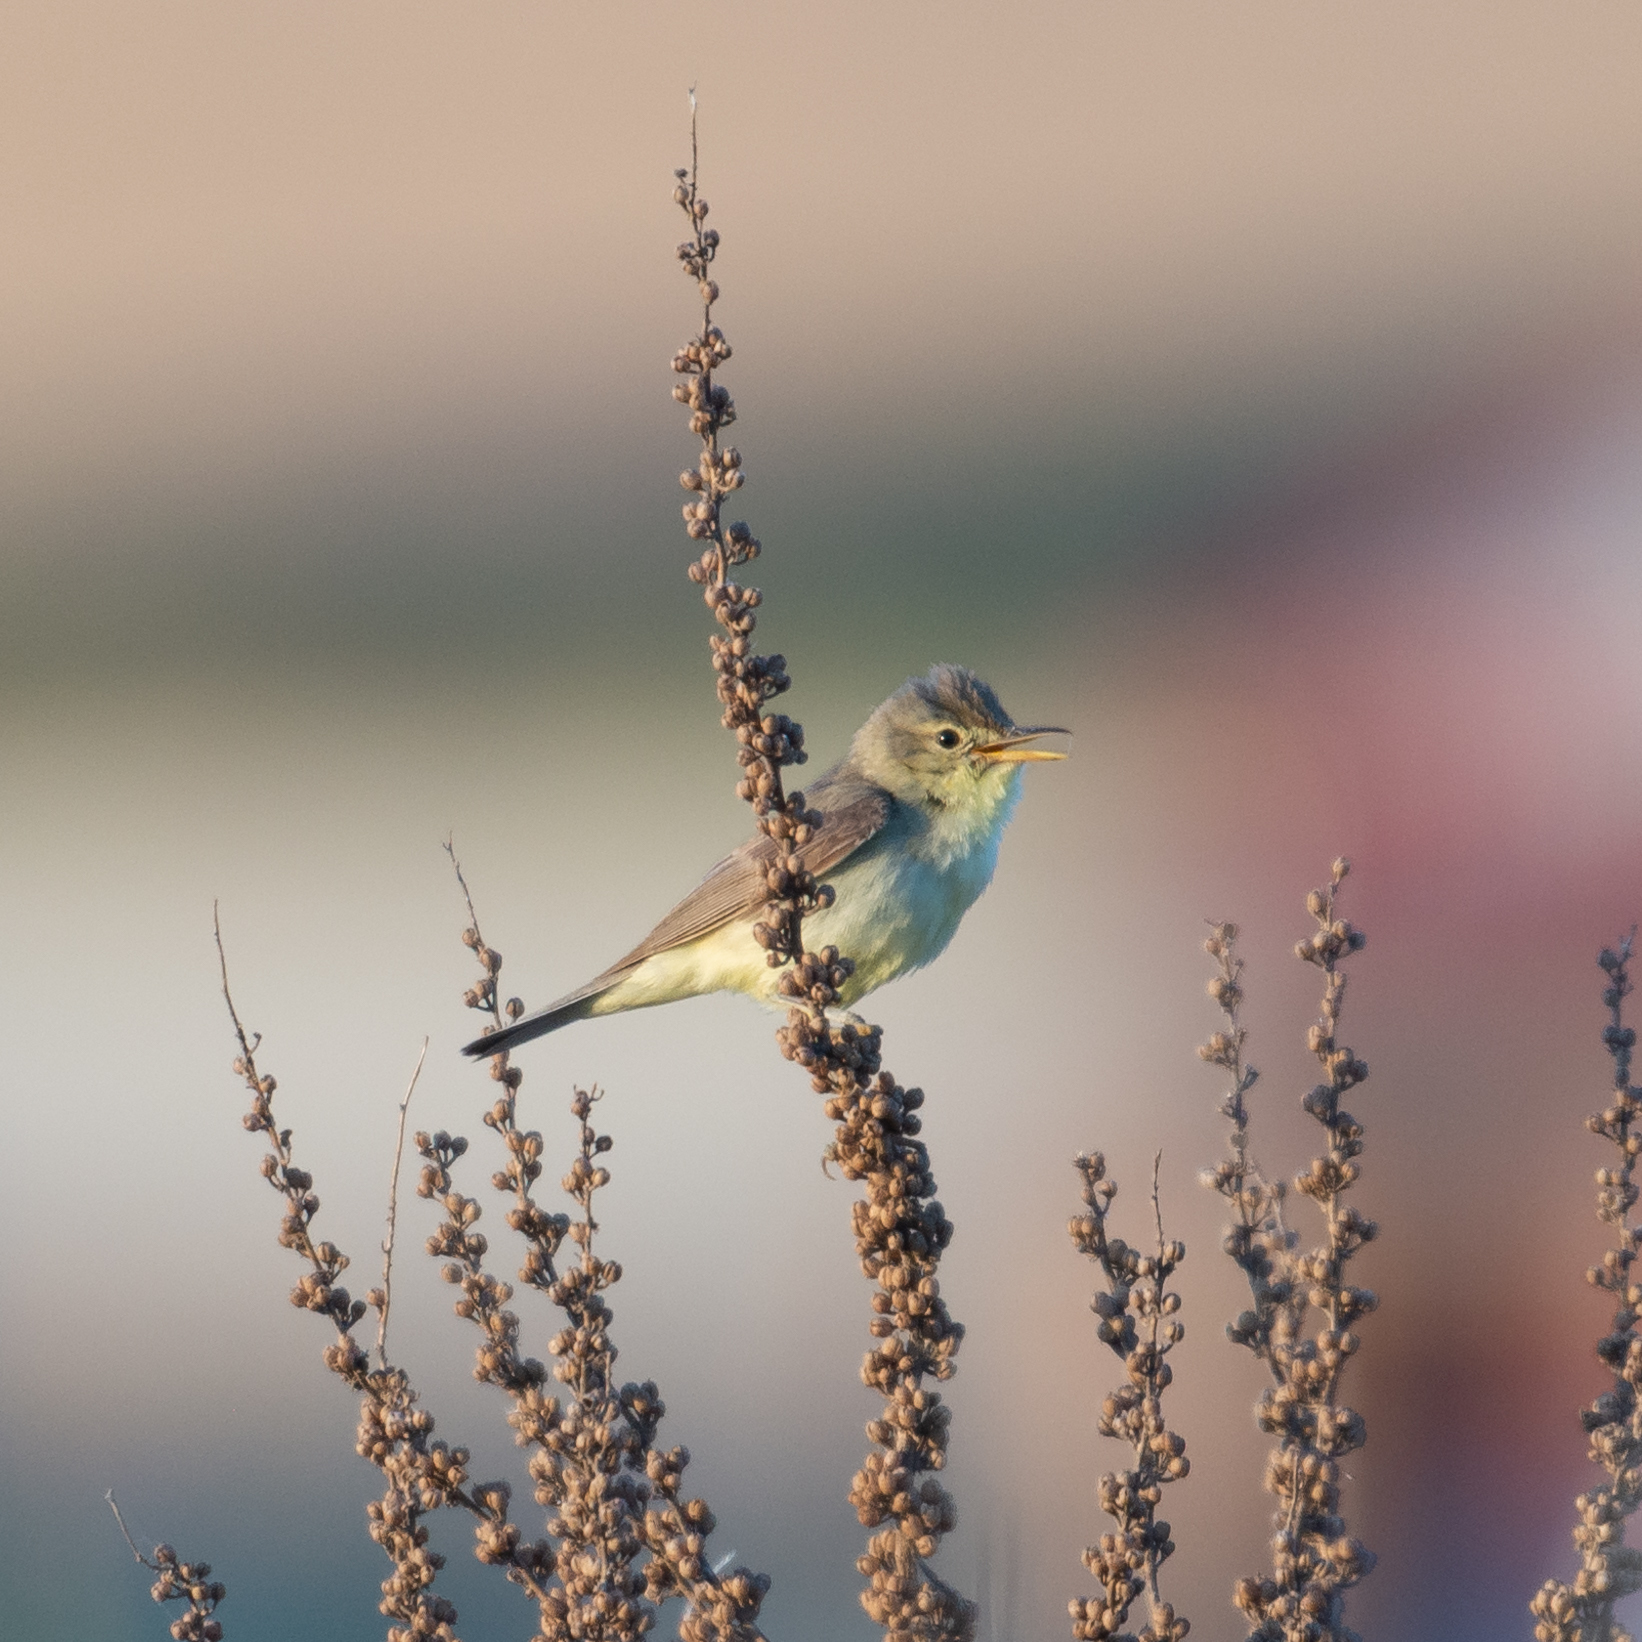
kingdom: Animalia
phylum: Chordata
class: Aves
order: Passeriformes
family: Acrocephalidae
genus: Hippolais
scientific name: Hippolais polyglotta
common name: Melodious warbler
